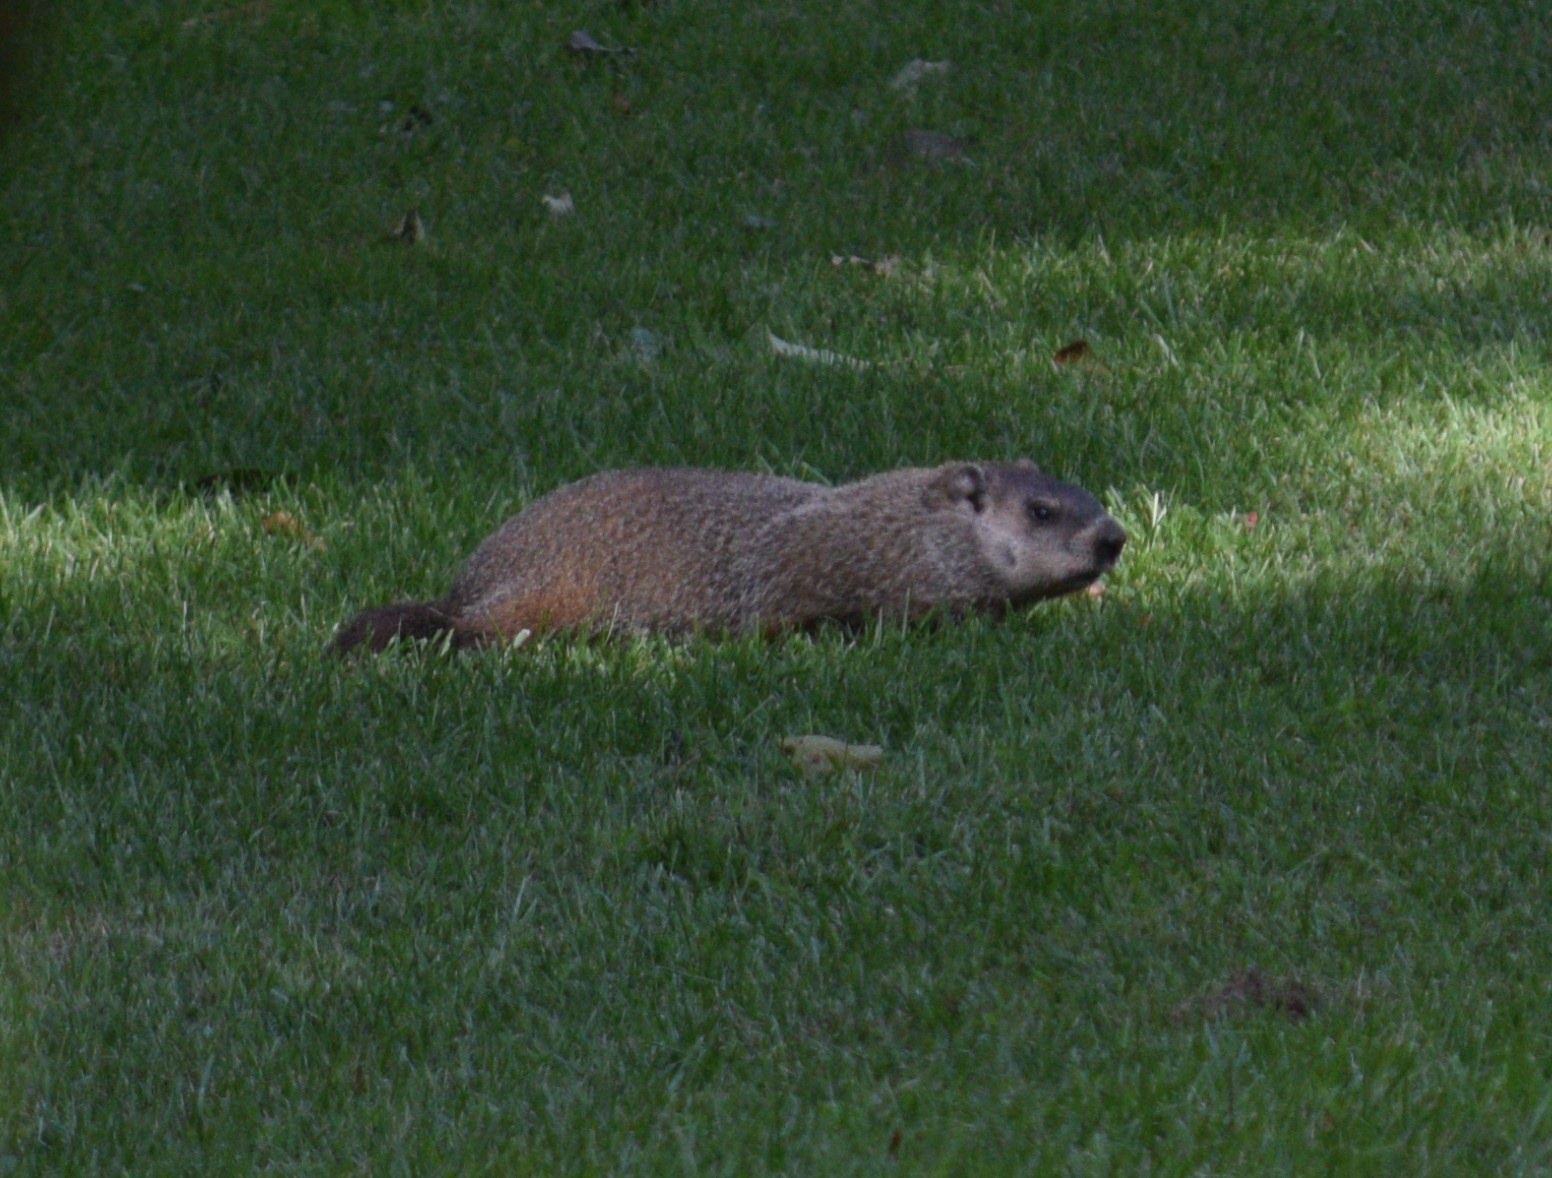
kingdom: Animalia
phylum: Chordata
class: Mammalia
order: Rodentia
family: Sciuridae
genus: Marmota
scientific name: Marmota monax
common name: Groundhog
